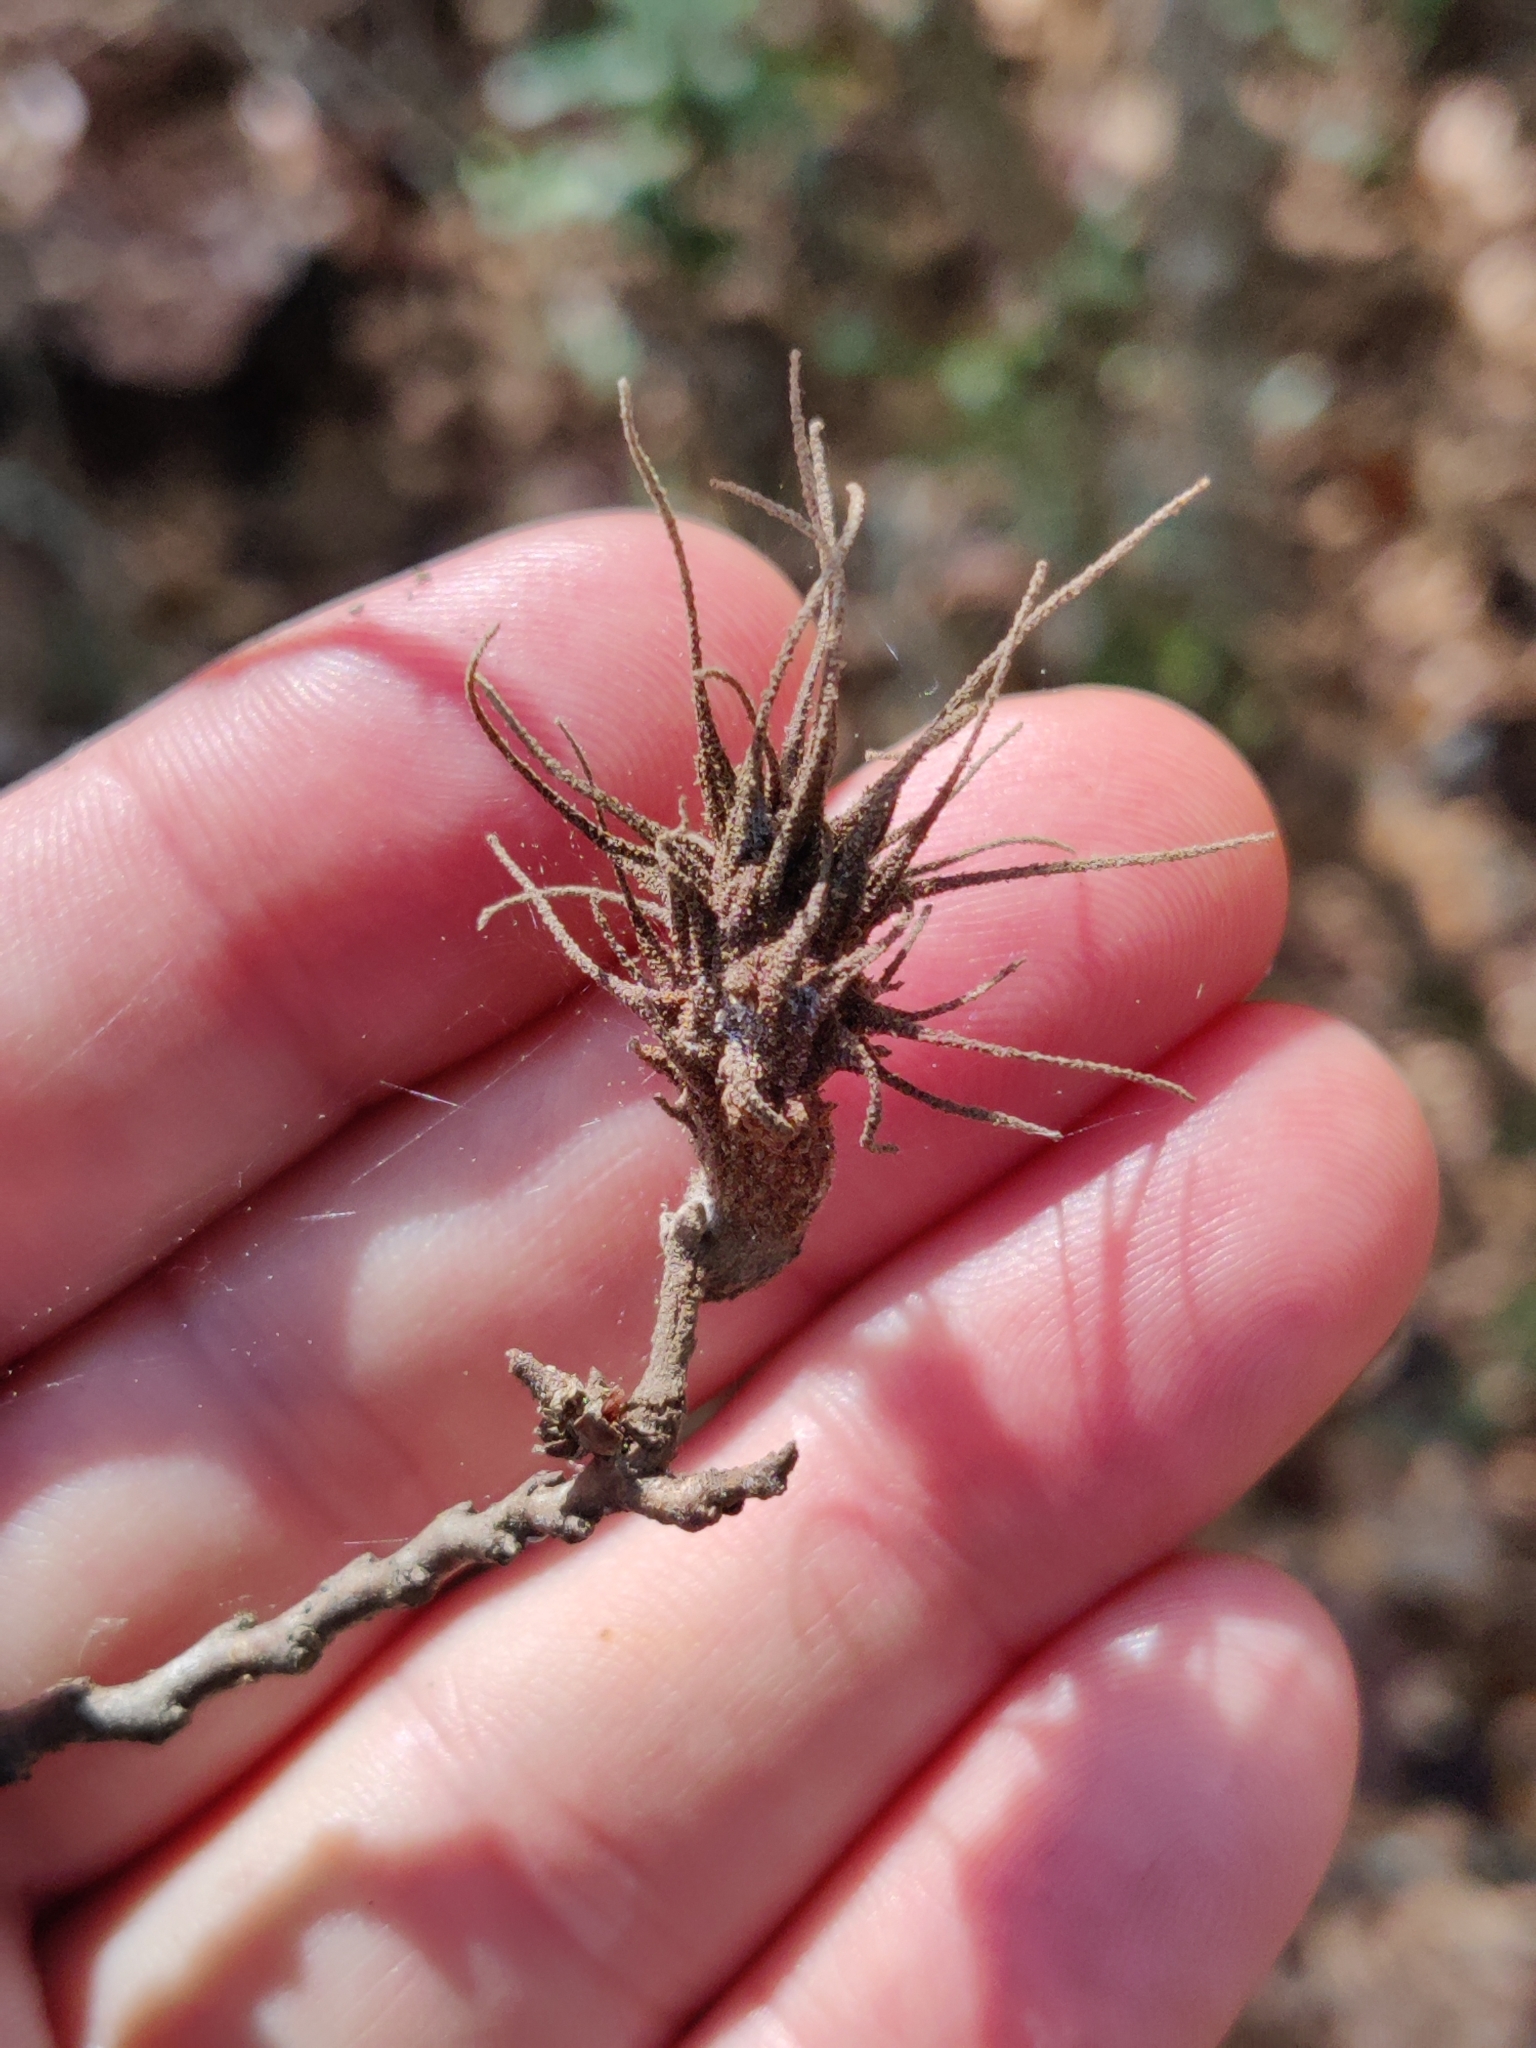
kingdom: Animalia
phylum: Arthropoda
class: Insecta
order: Hemiptera
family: Aphididae
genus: Hamamelistes
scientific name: Hamamelistes spinosus
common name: Witch hazel gall aphid
